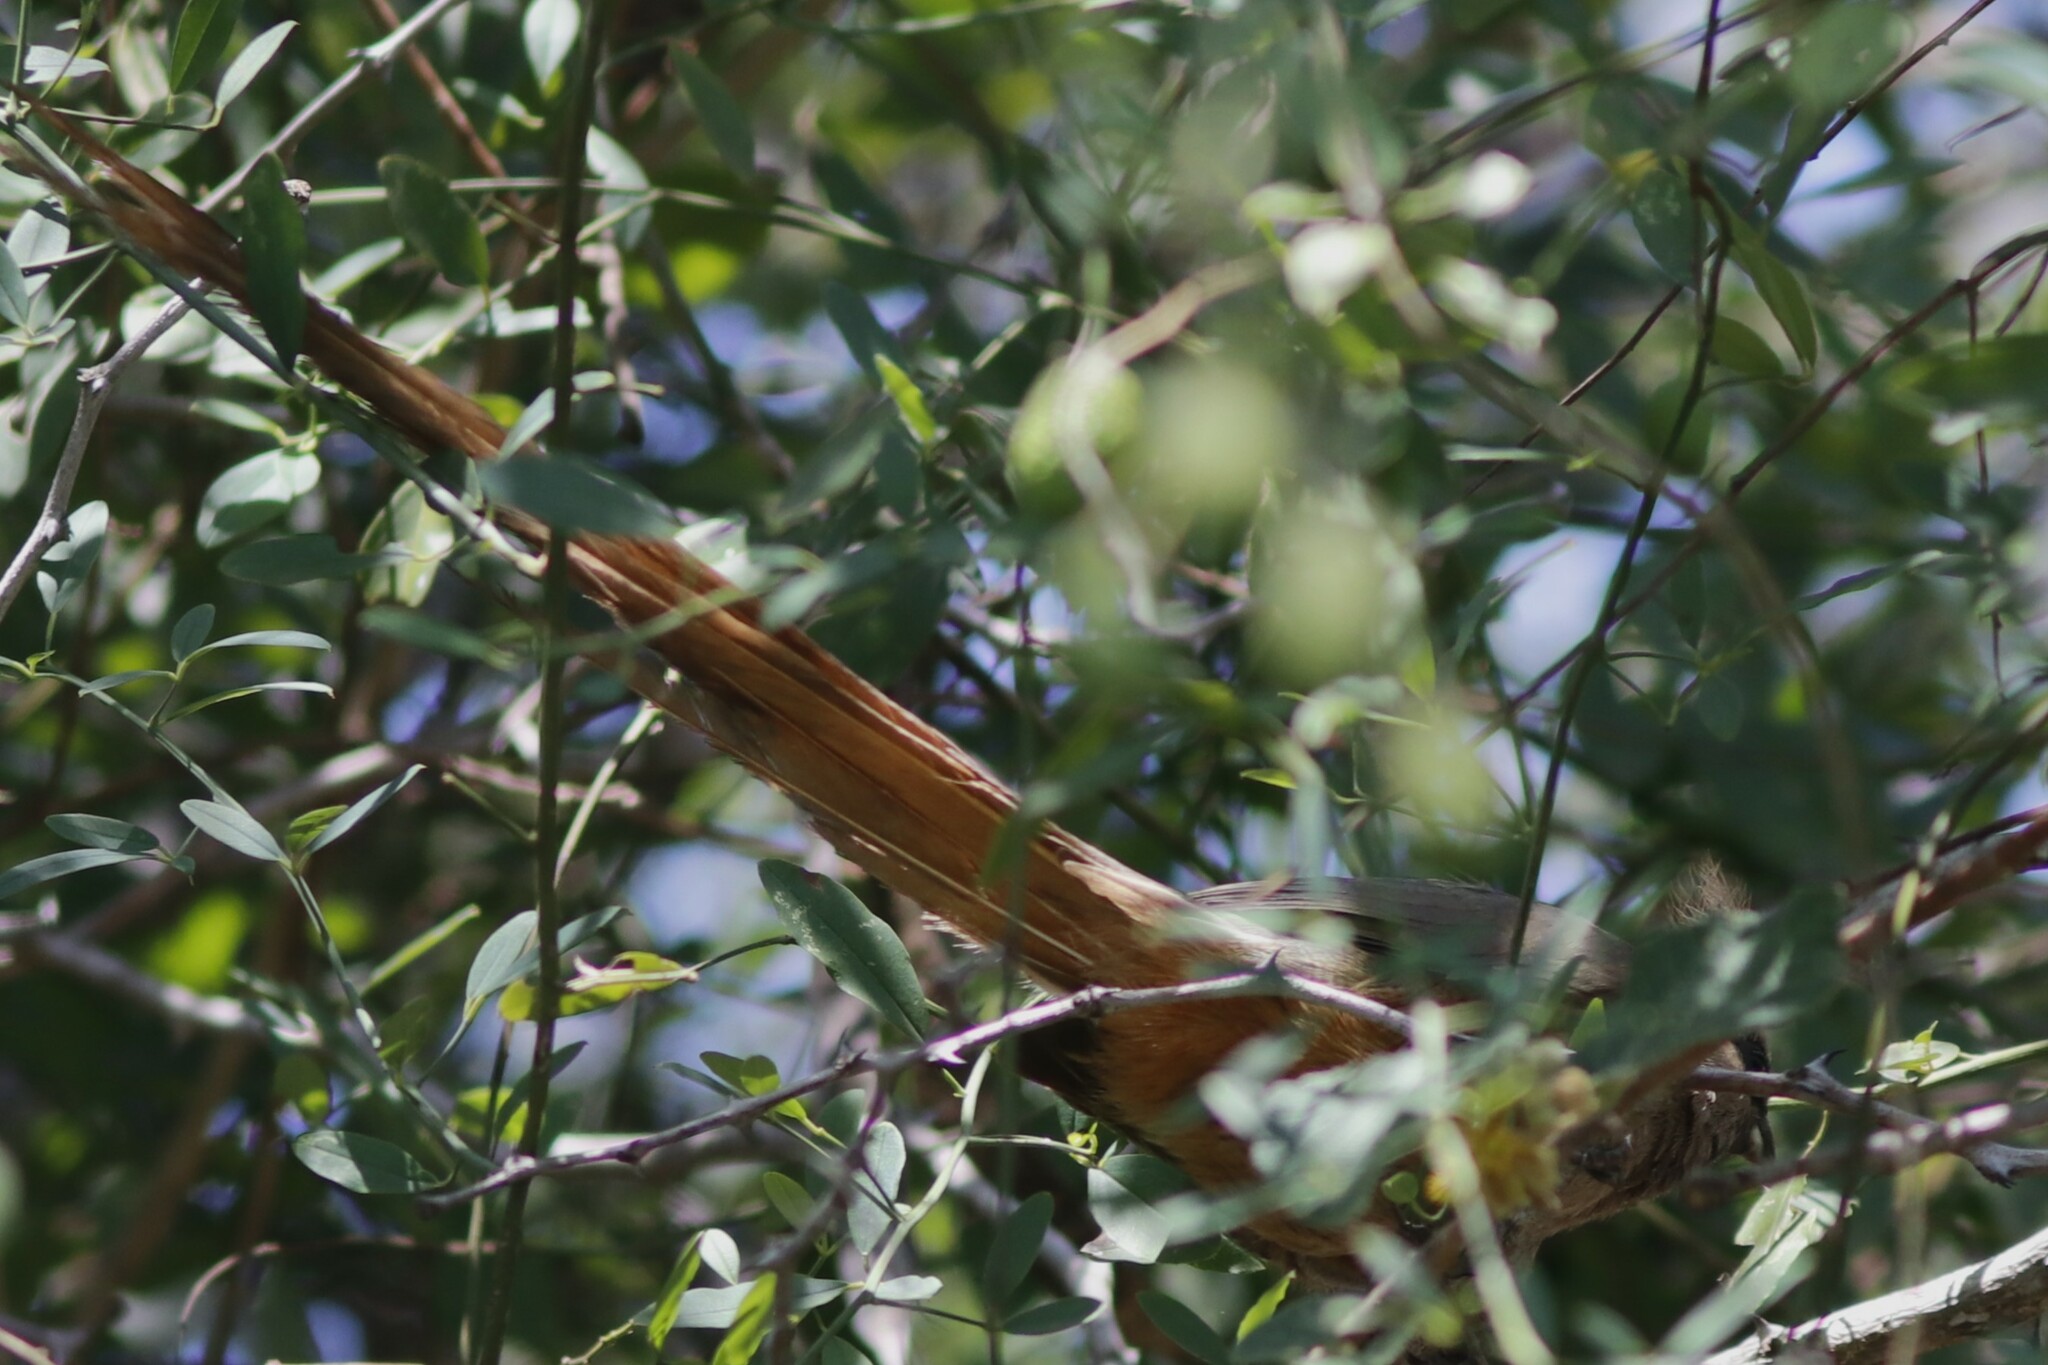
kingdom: Animalia
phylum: Chordata
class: Aves
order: Coliiformes
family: Coliidae
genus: Colius
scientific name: Colius striatus
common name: Speckled mousebird
